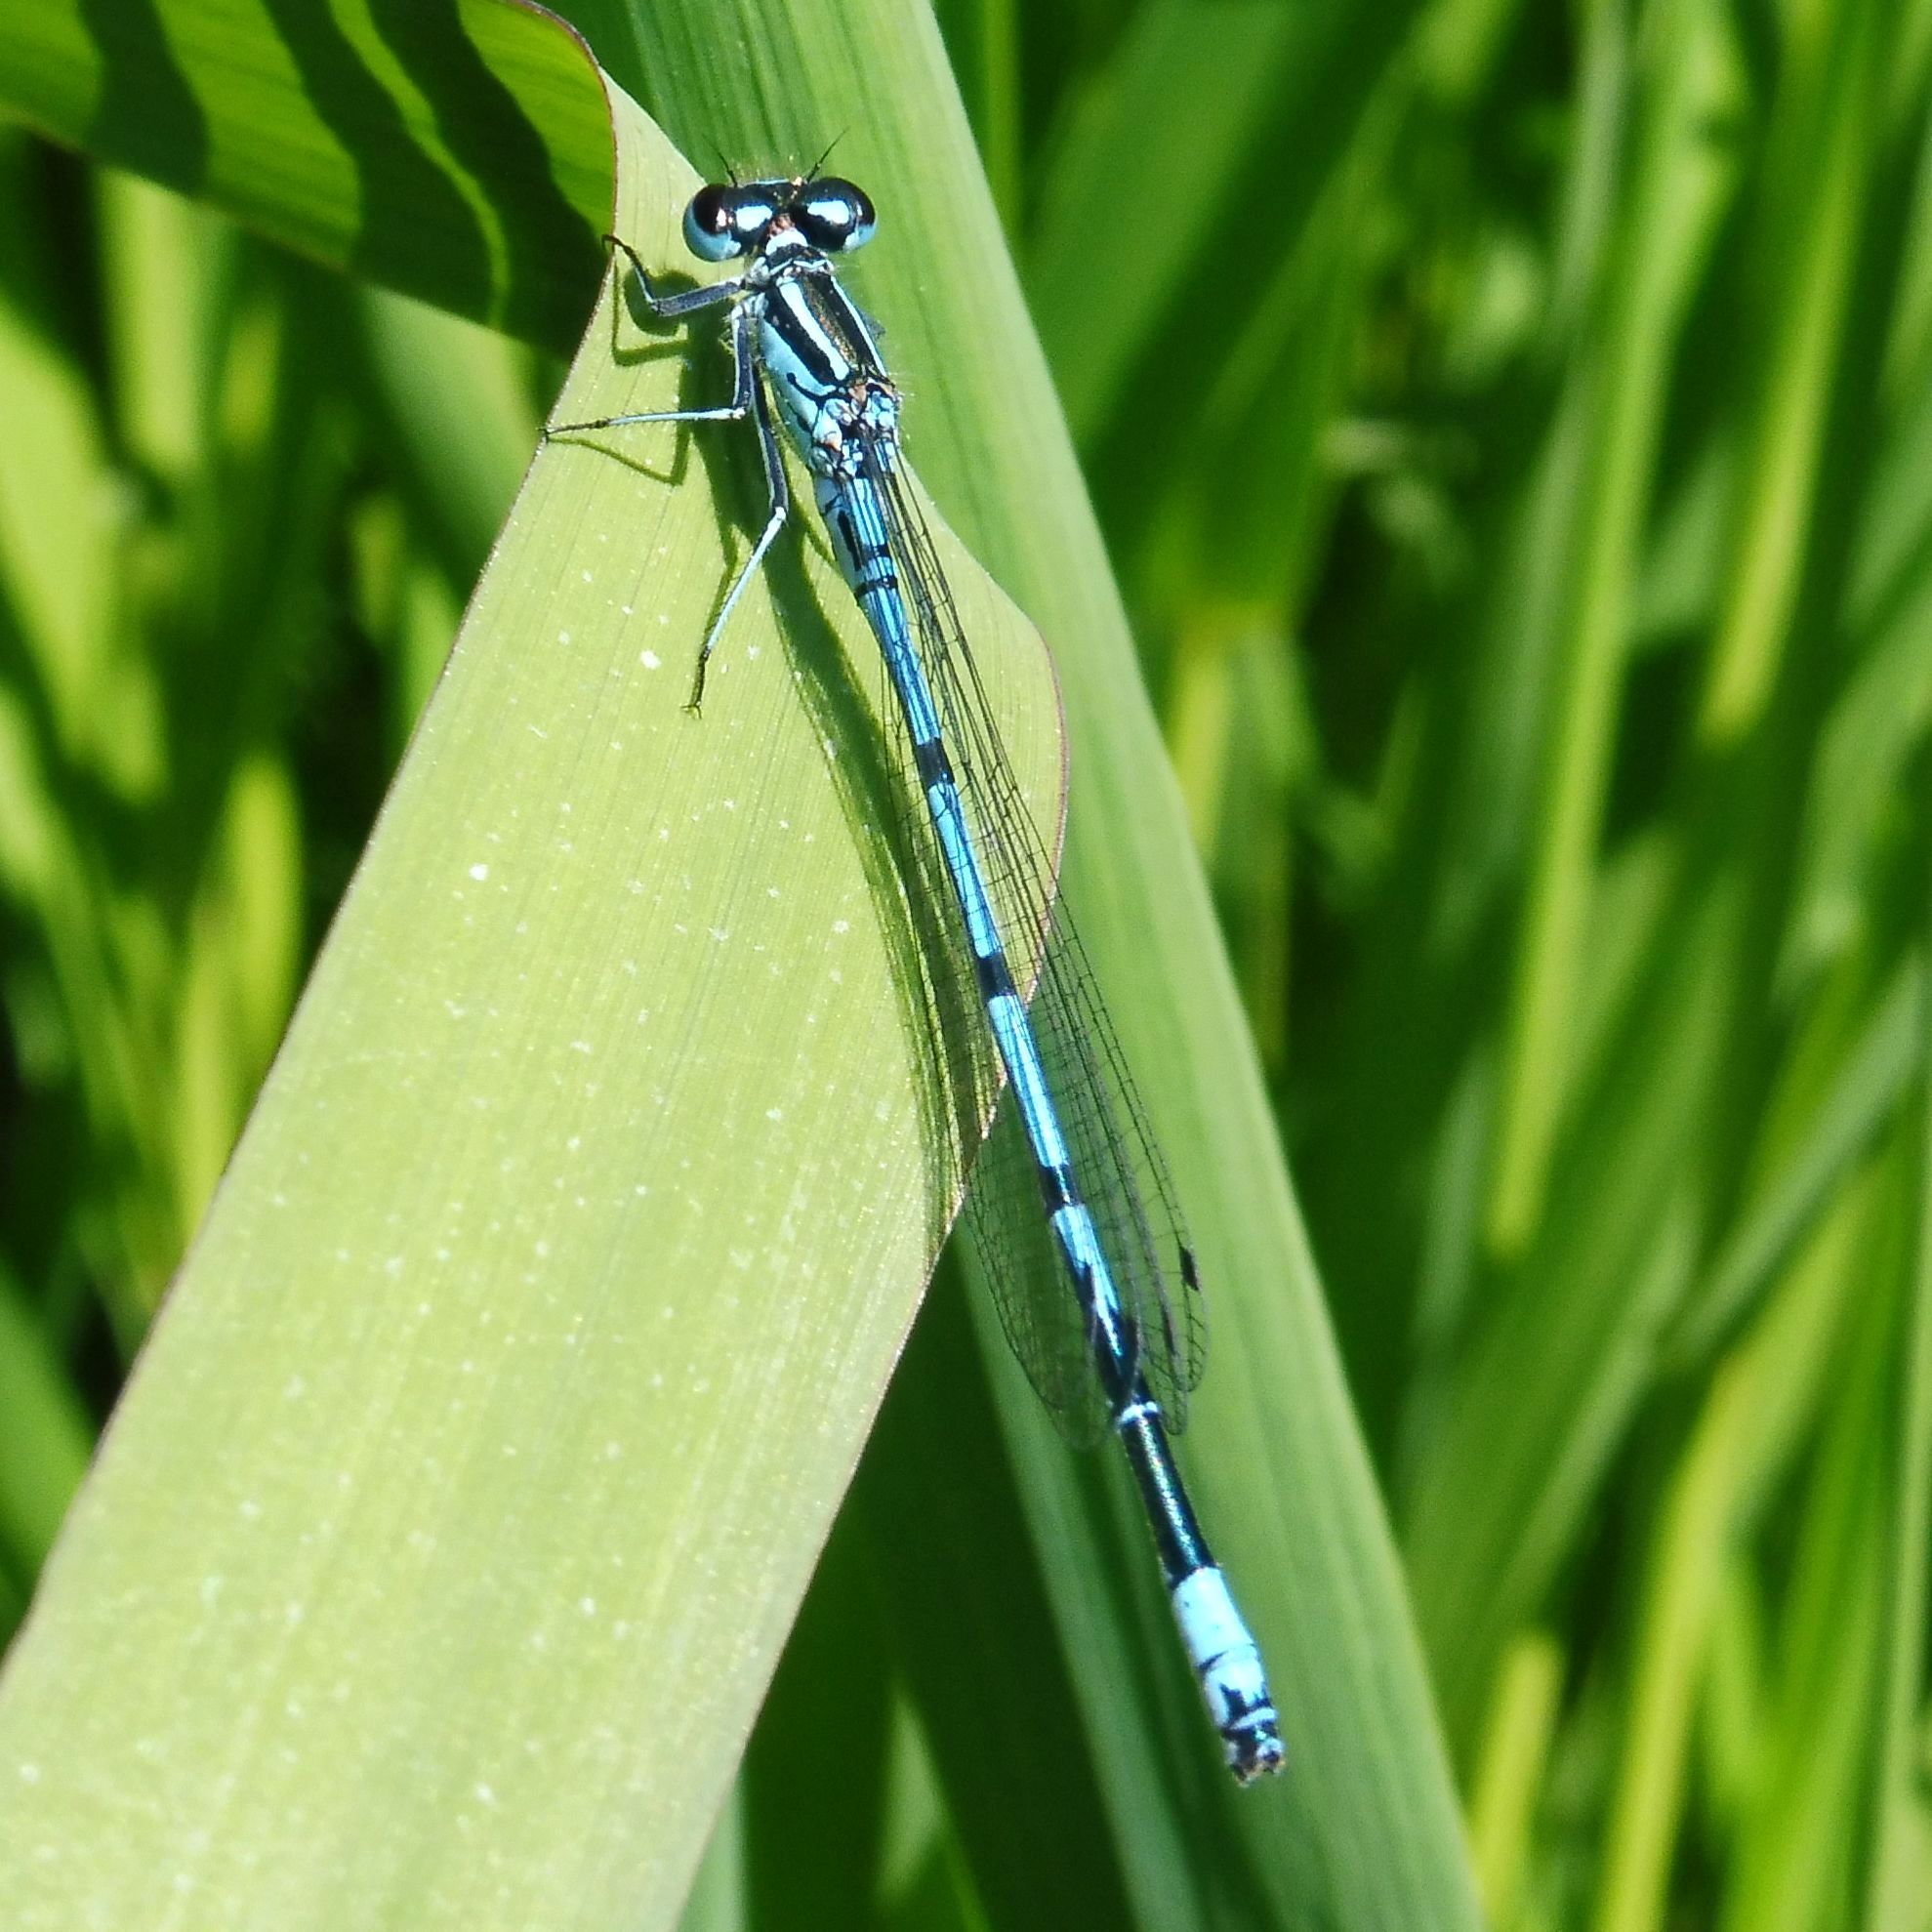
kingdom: Animalia
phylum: Arthropoda
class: Insecta
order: Odonata
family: Coenagrionidae
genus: Coenagrion
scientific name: Coenagrion puella
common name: Azure damselfly
